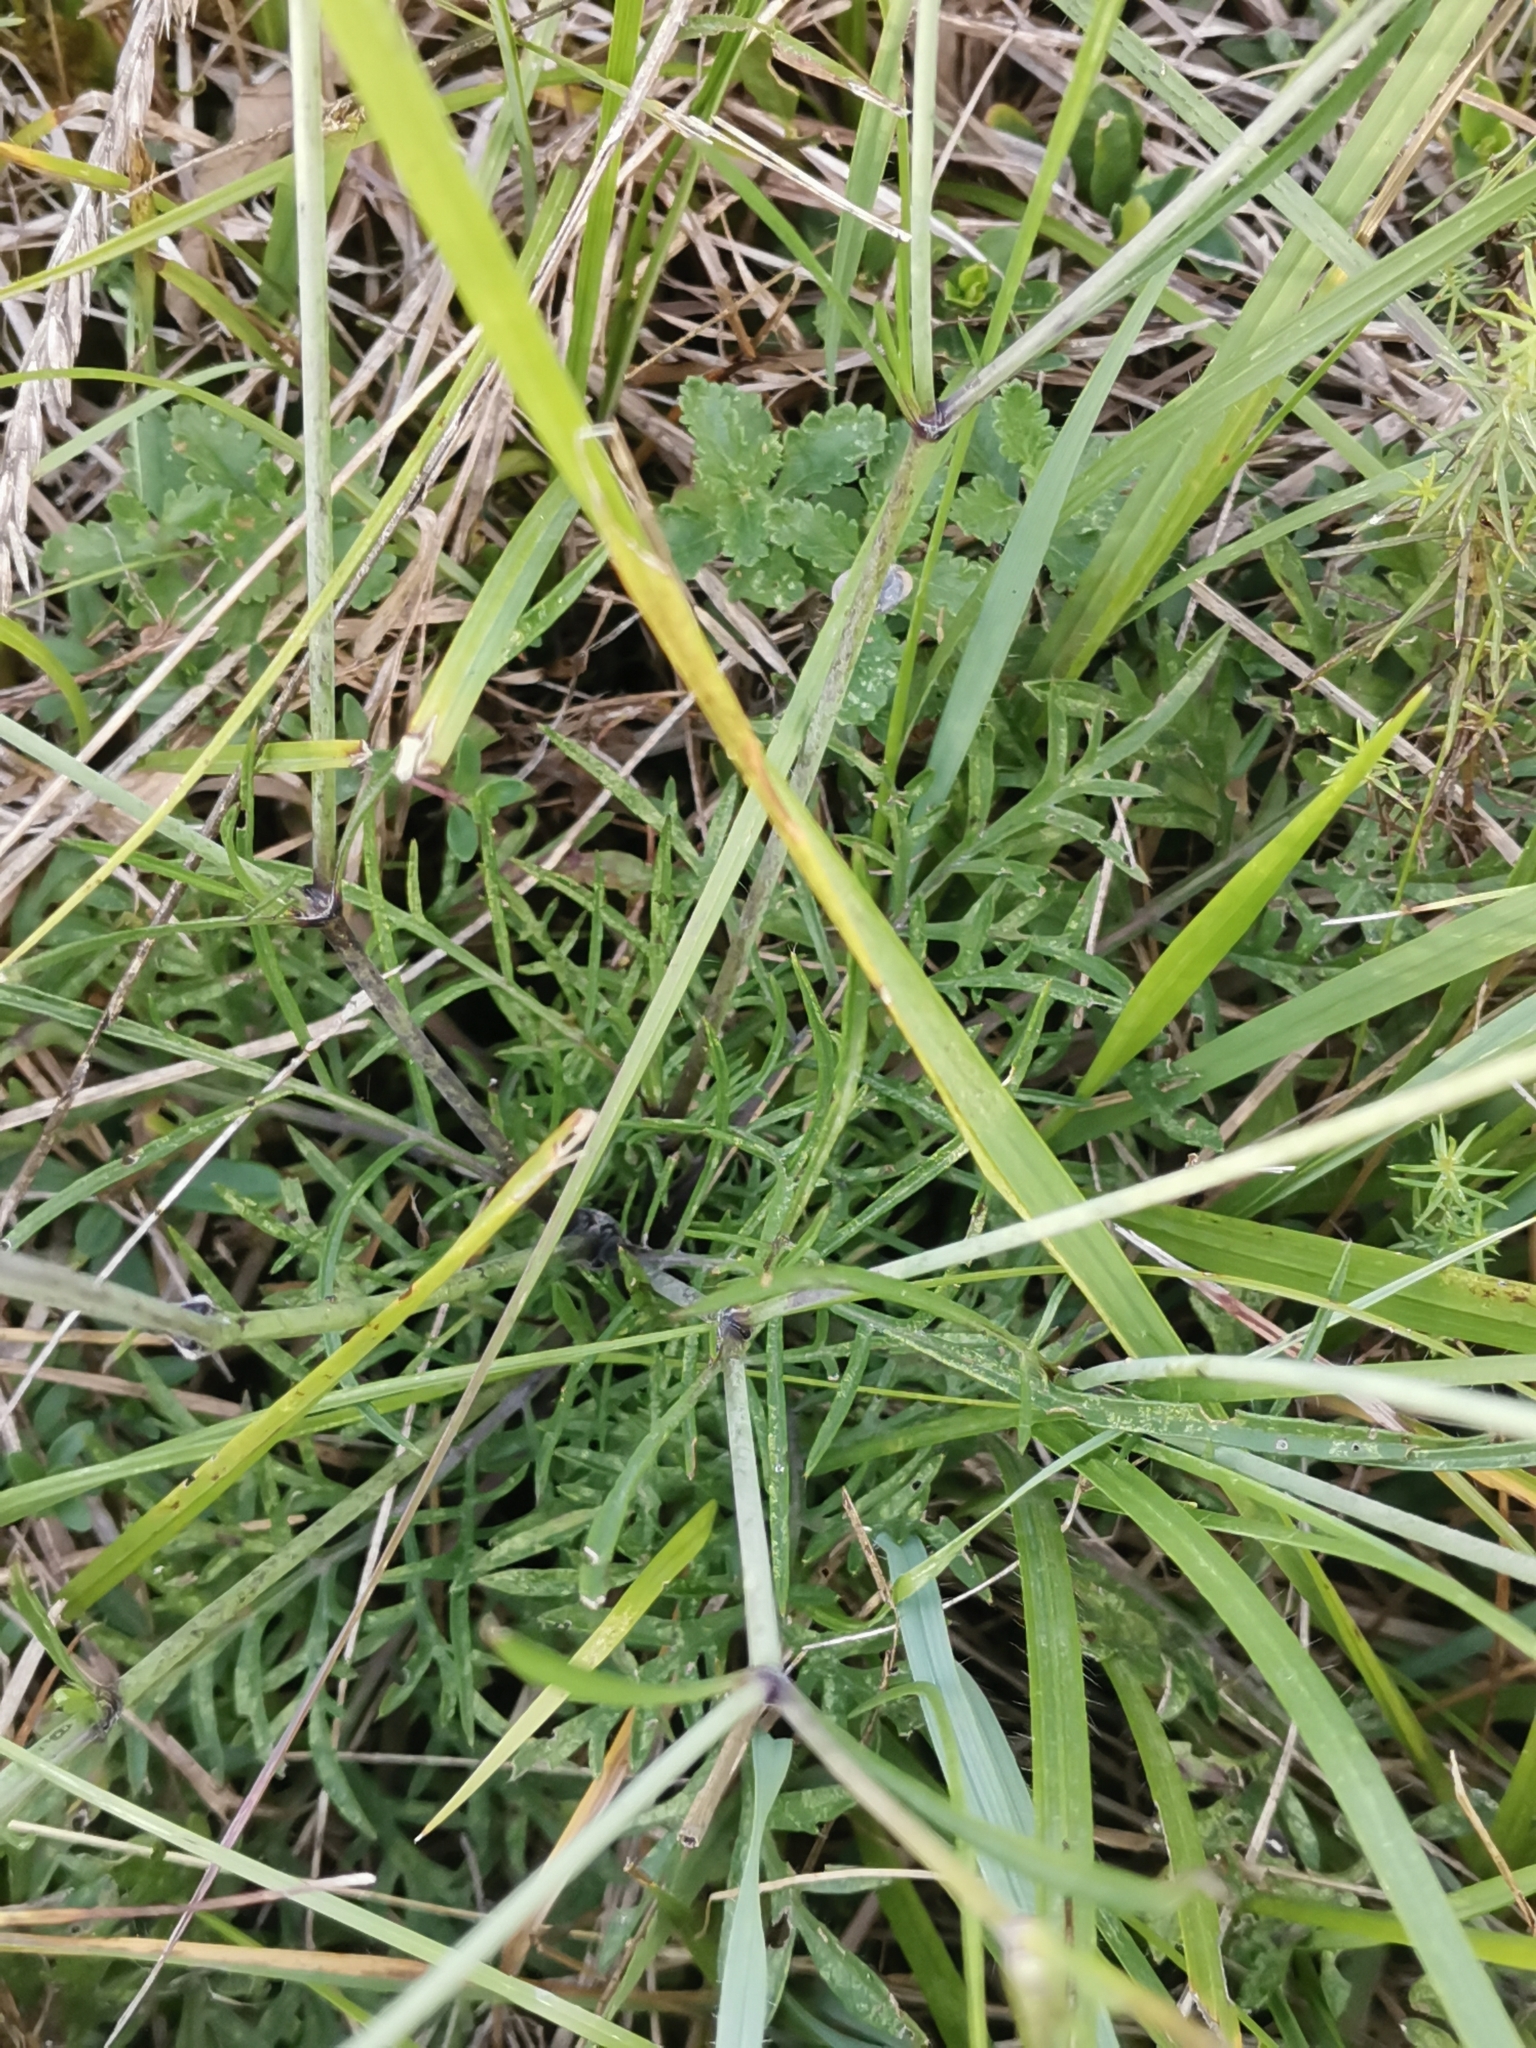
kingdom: Plantae
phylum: Tracheophyta
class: Magnoliopsida
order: Dipsacales
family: Caprifoliaceae
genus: Scabiosa
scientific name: Scabiosa triandra
